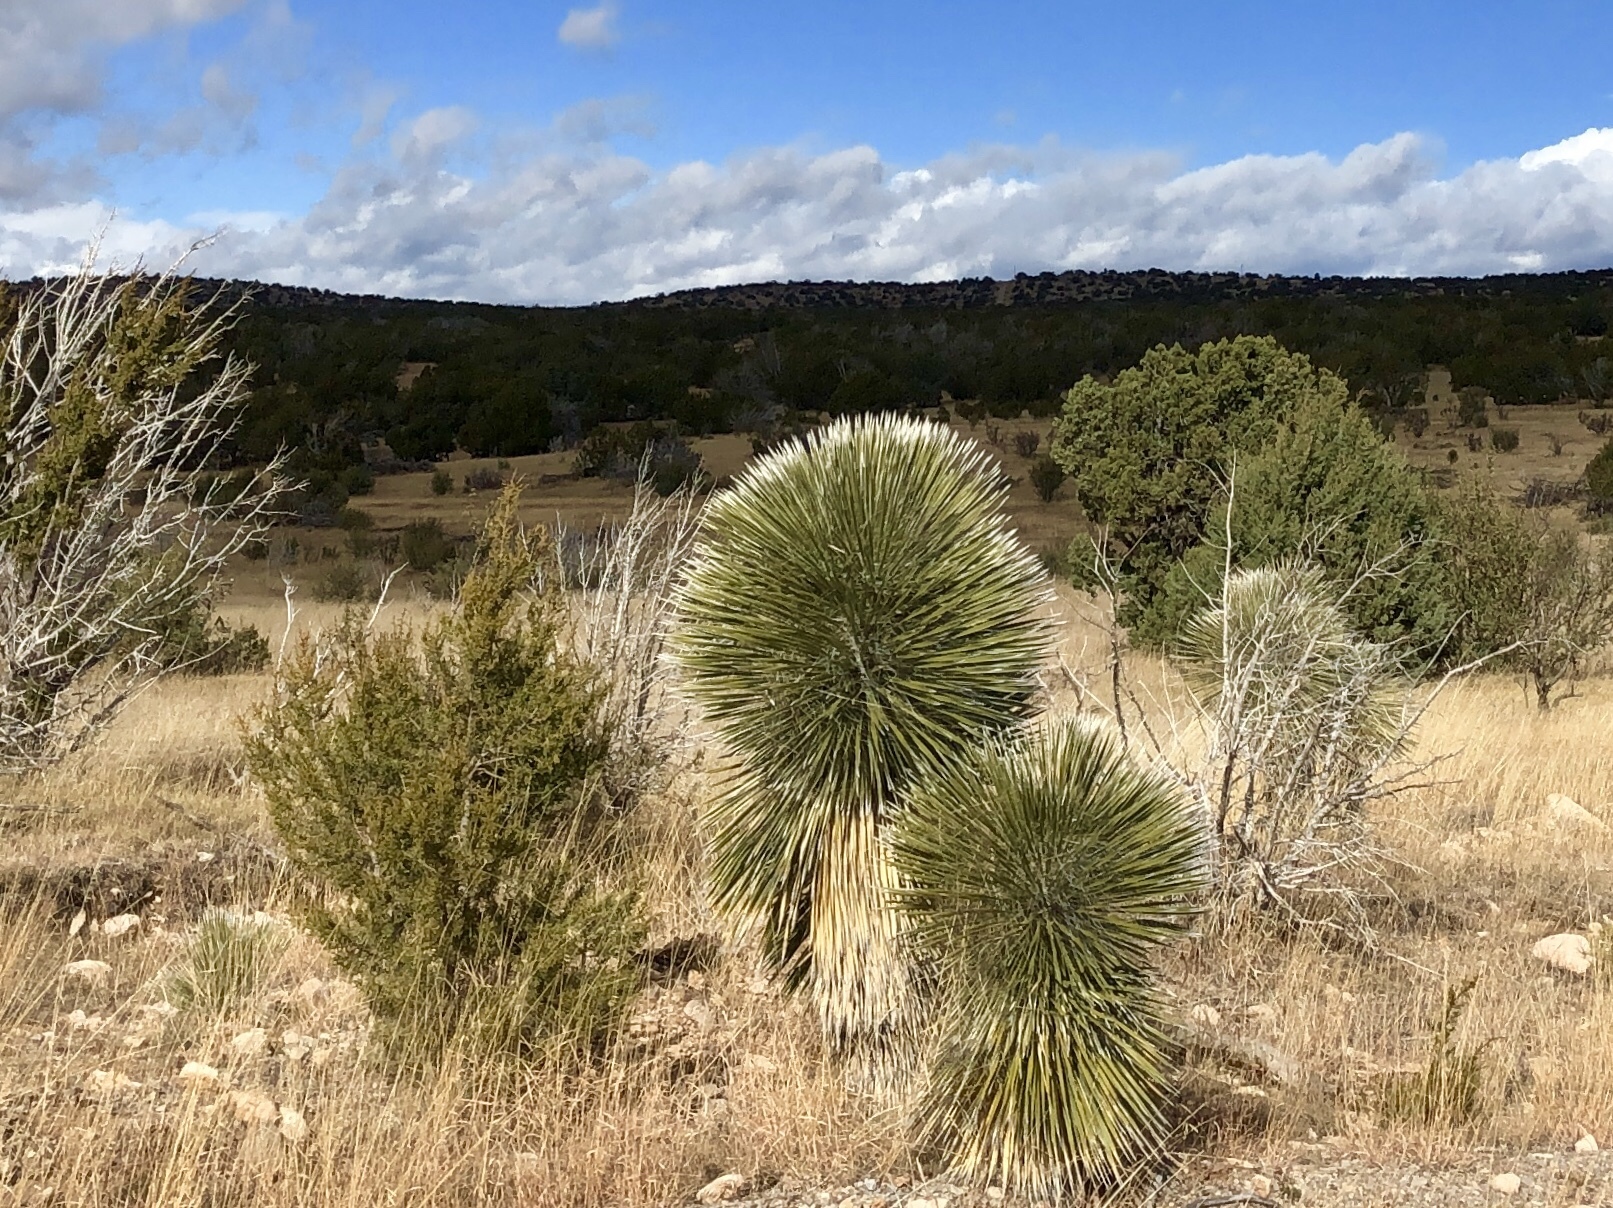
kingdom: Plantae
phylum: Tracheophyta
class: Liliopsida
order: Asparagales
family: Asparagaceae
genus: Yucca
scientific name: Yucca elata
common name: Palmella
